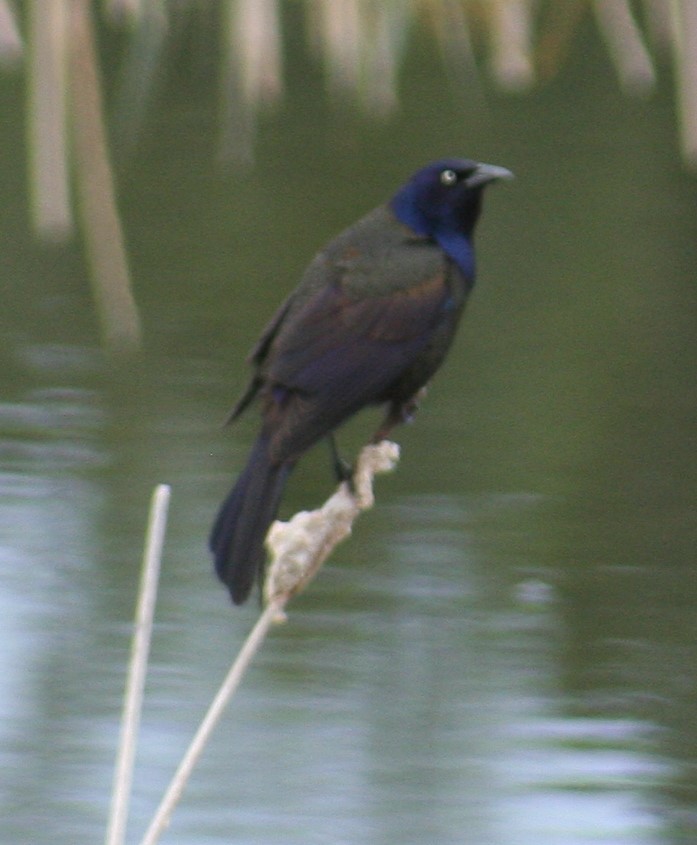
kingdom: Animalia
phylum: Chordata
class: Aves
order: Passeriformes
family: Icteridae
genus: Quiscalus
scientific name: Quiscalus quiscula
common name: Common grackle
